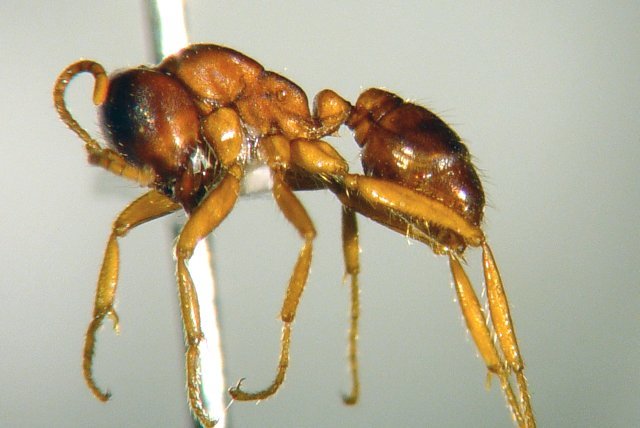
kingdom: Animalia
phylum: Arthropoda
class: Insecta
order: Hymenoptera
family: Formicidae
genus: Cheliomyrmex
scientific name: Cheliomyrmex andicola
